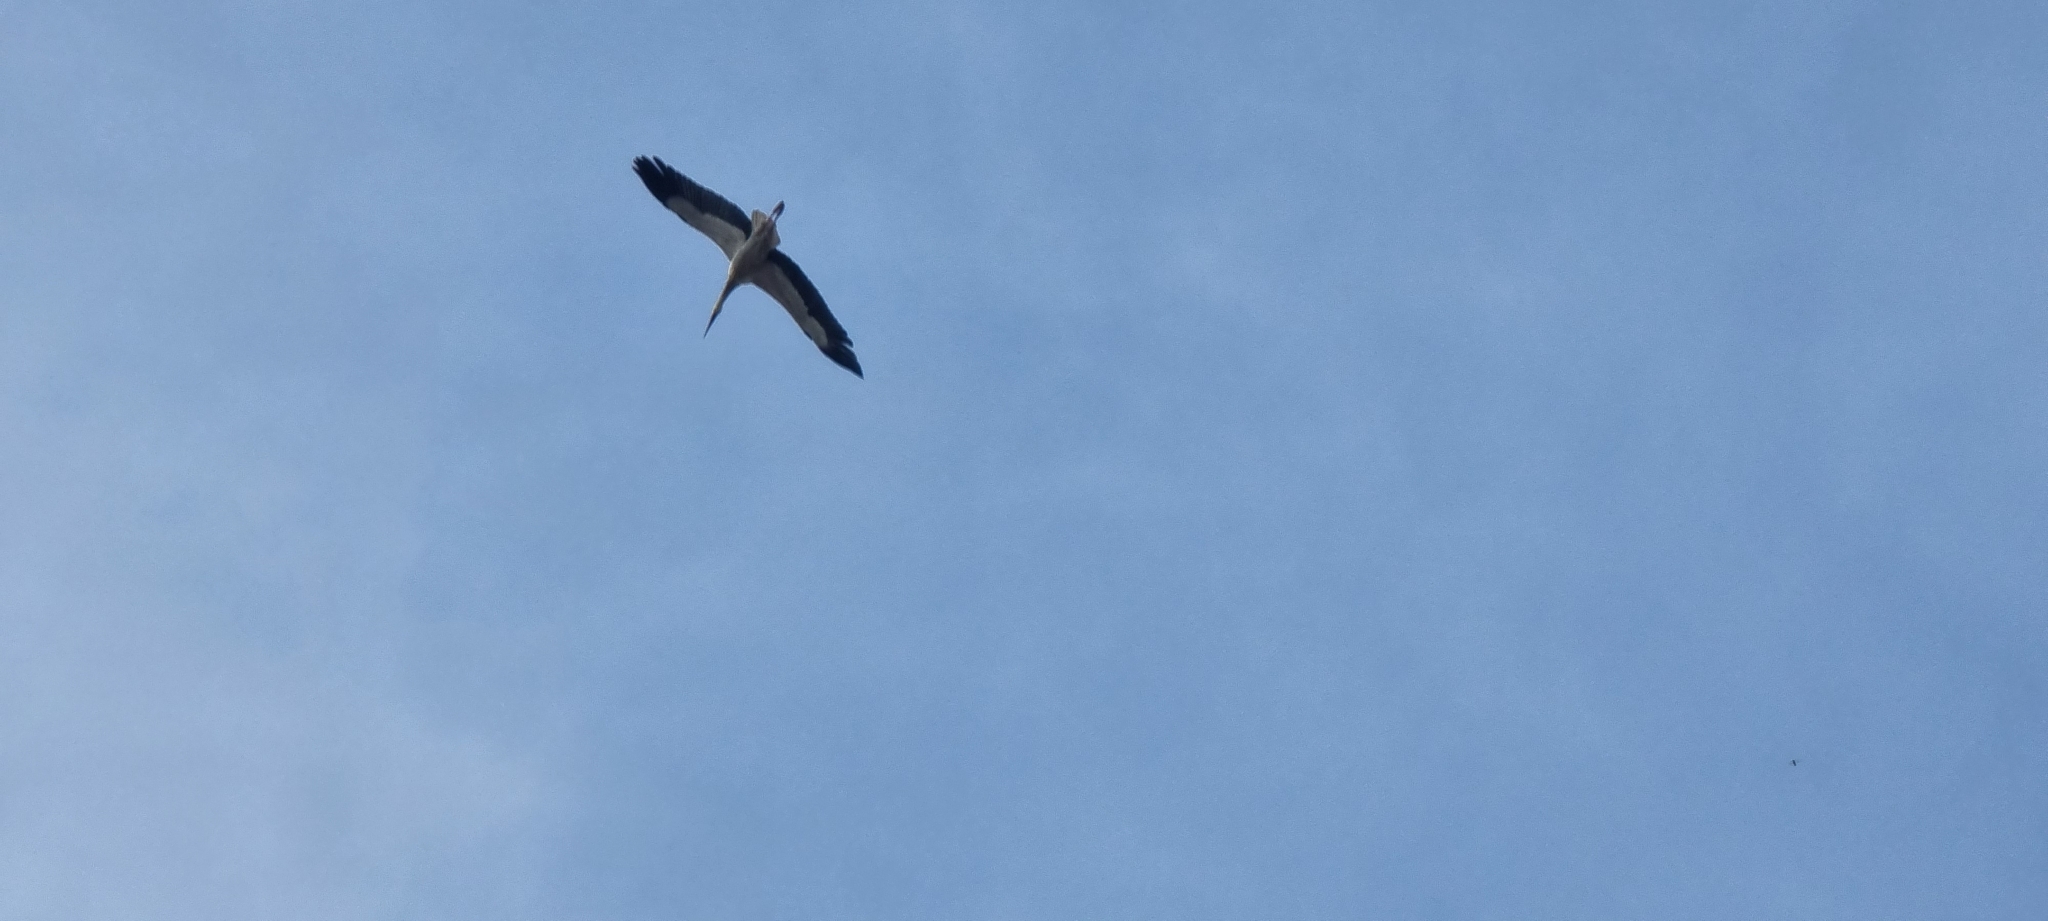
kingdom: Animalia
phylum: Chordata
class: Aves
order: Ciconiiformes
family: Ciconiidae
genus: Ciconia
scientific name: Ciconia ciconia
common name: White stork
